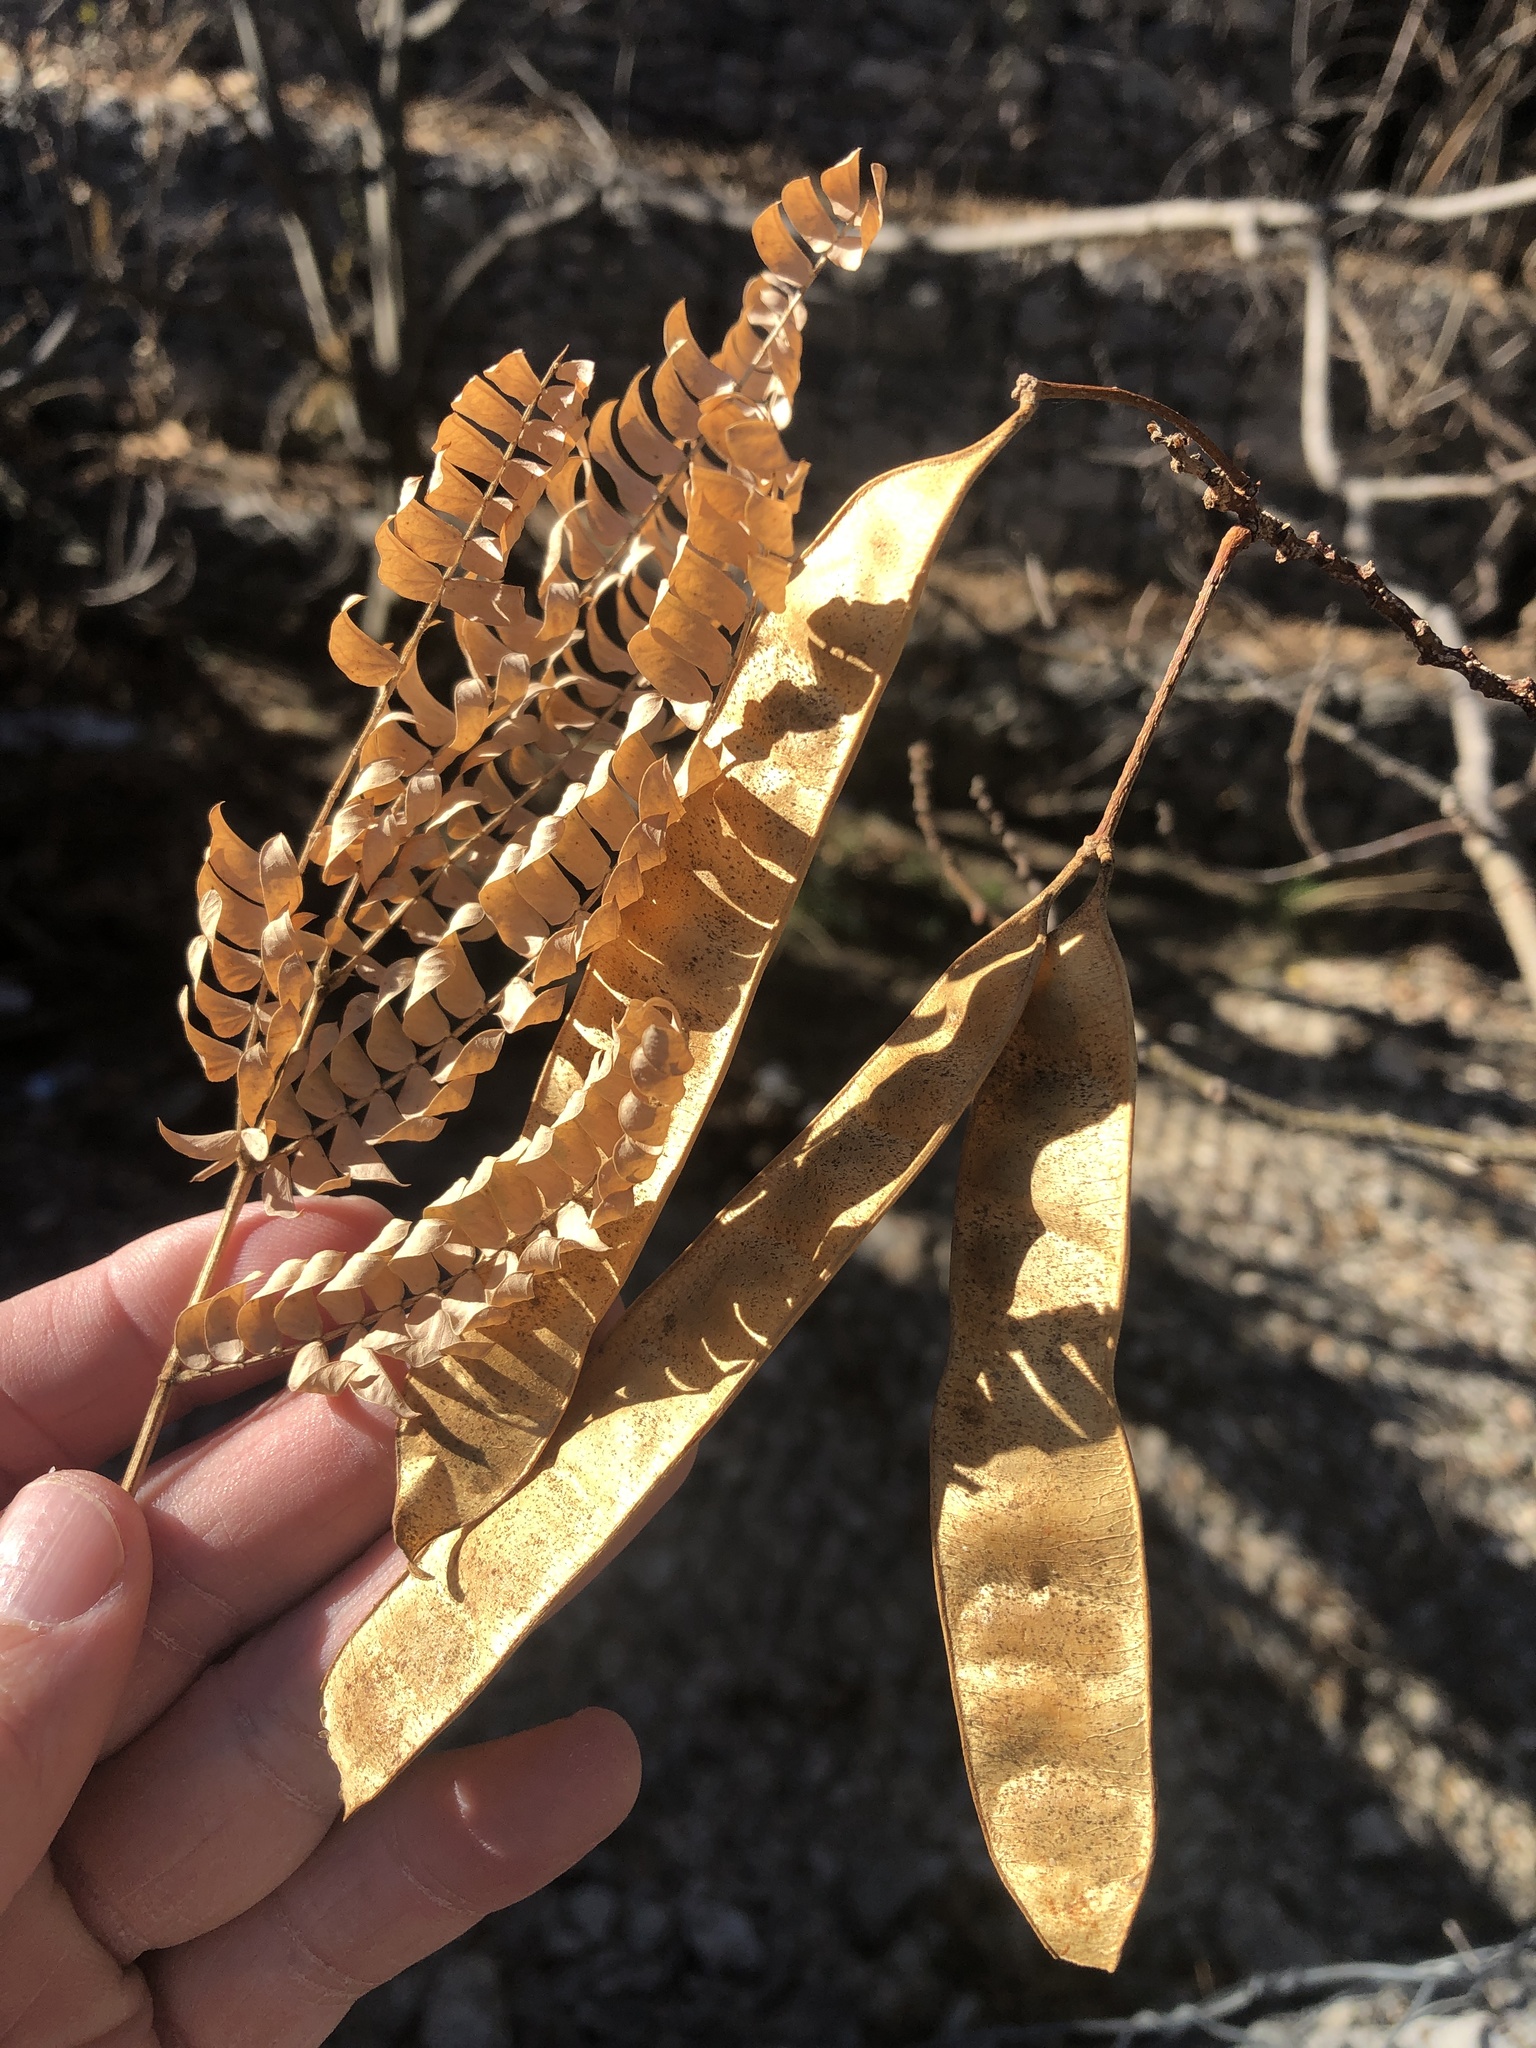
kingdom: Plantae
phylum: Tracheophyta
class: Magnoliopsida
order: Fabales
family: Fabaceae
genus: Albizia
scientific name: Albizia julibrissin
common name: Silktree
